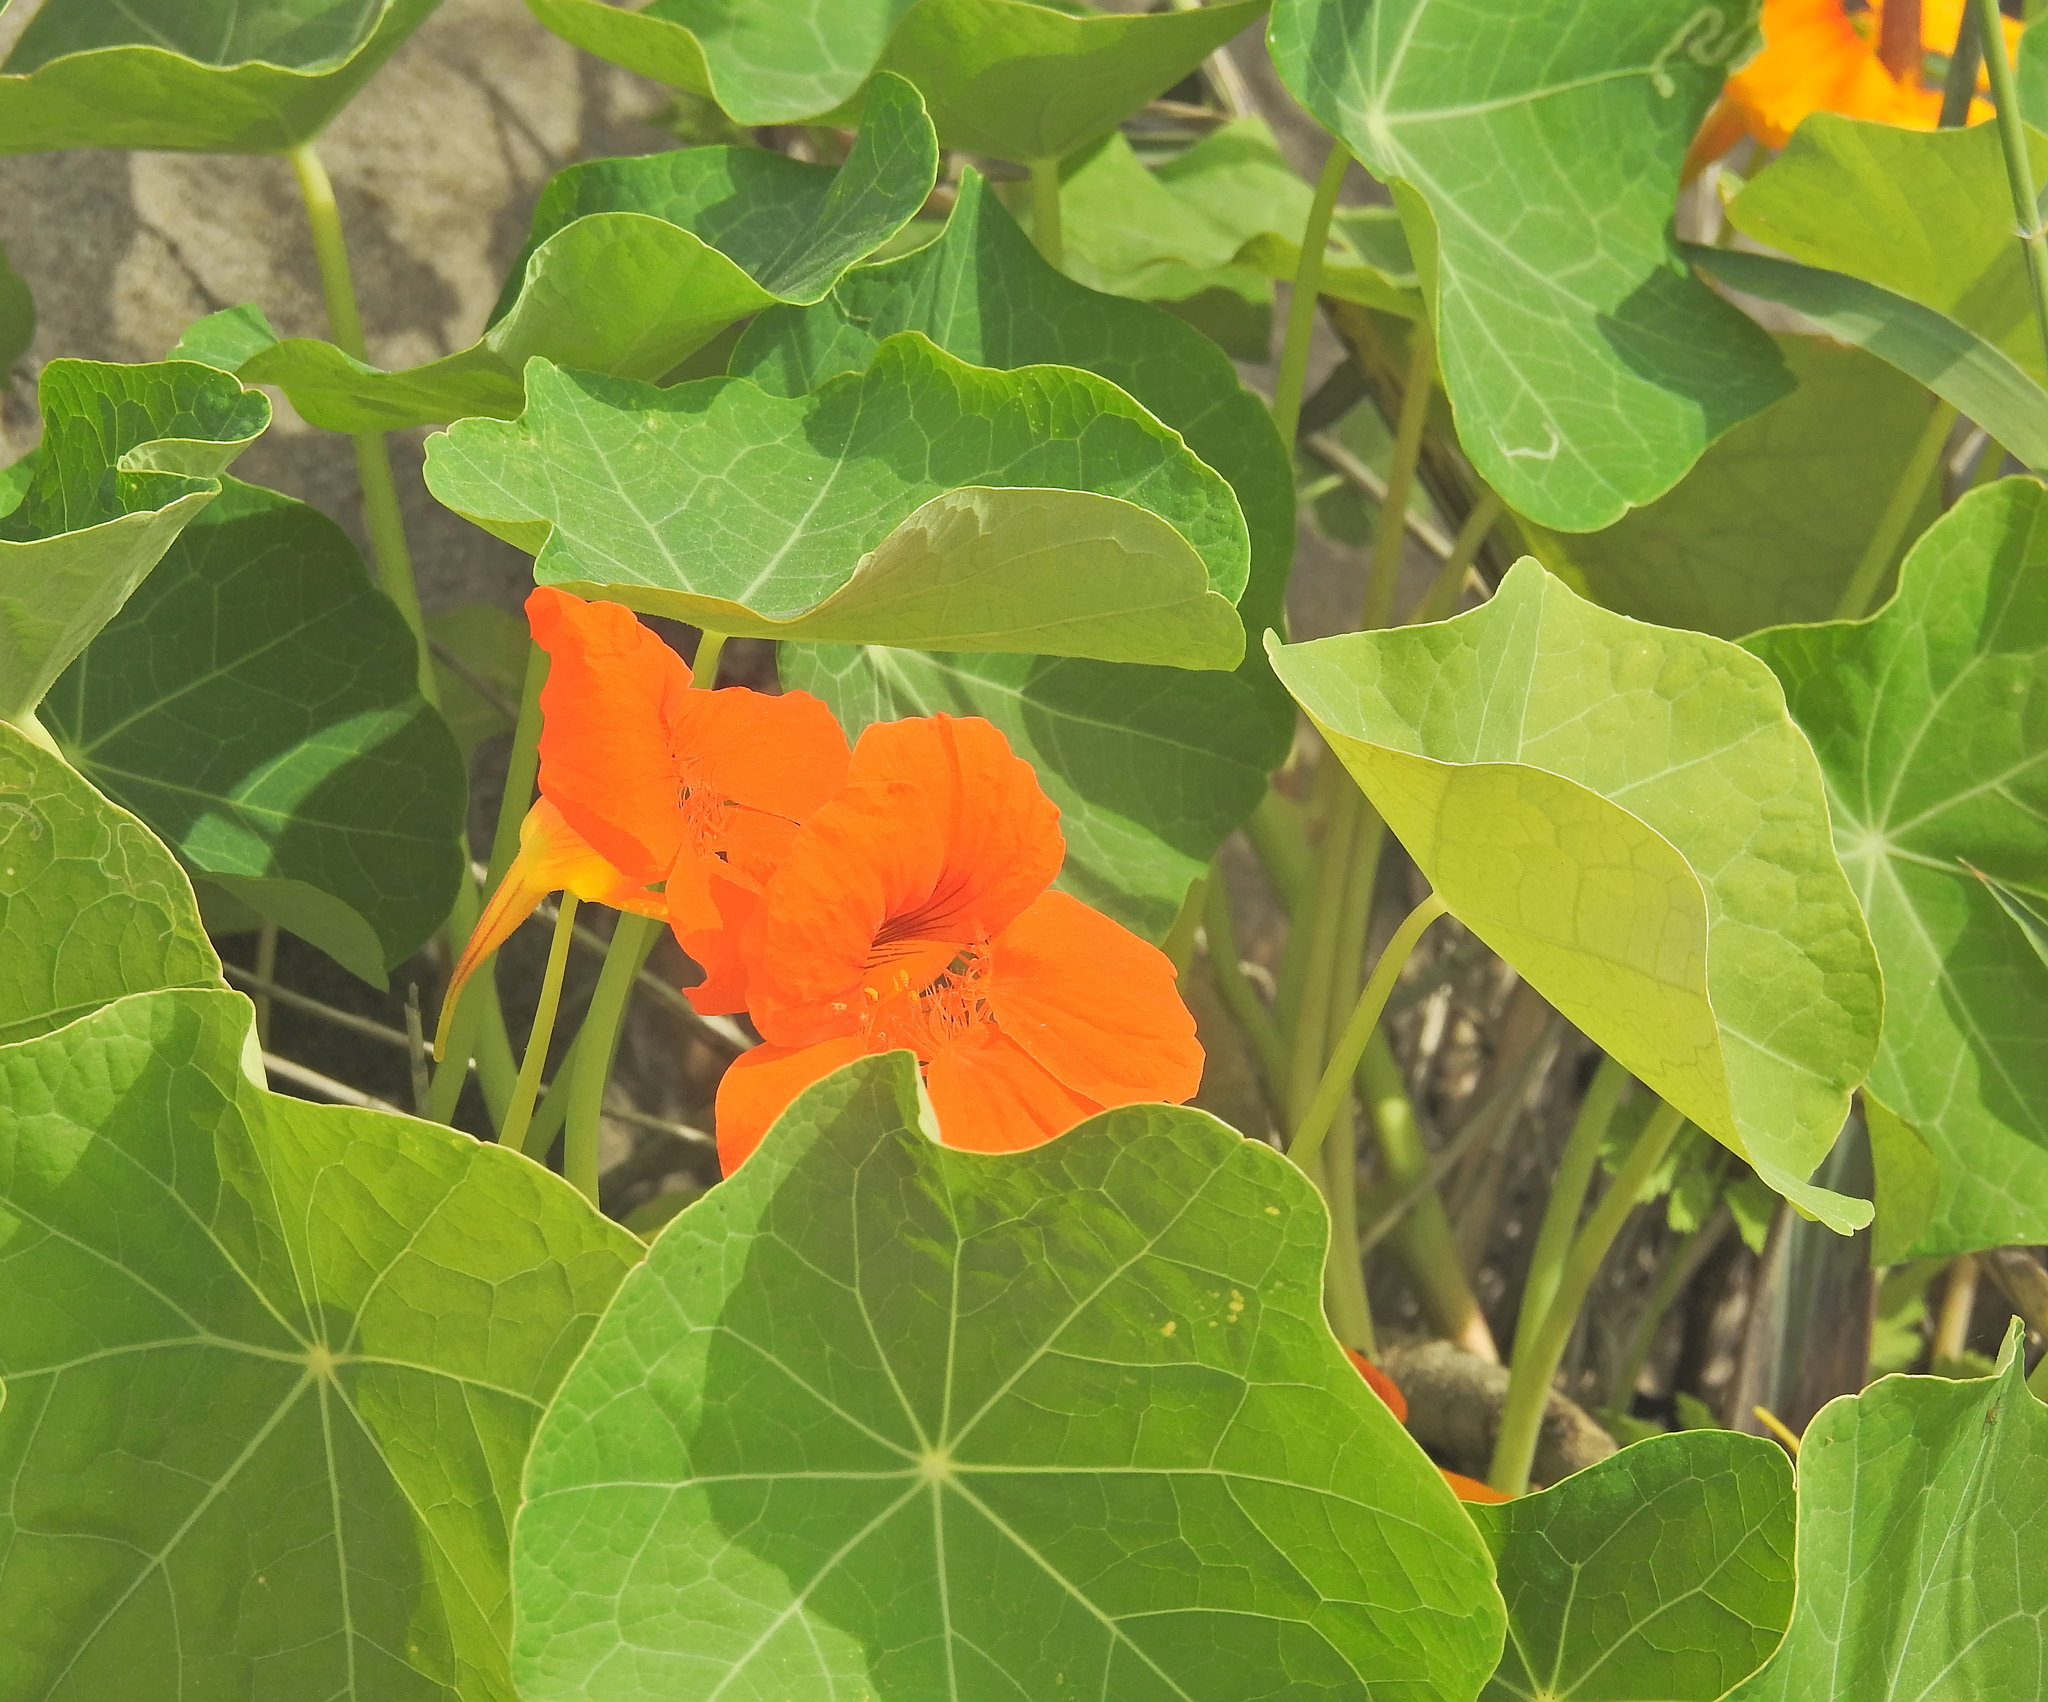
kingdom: Plantae
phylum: Tracheophyta
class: Magnoliopsida
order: Brassicales
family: Tropaeolaceae
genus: Tropaeolum
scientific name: Tropaeolum majus
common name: Nasturtium
